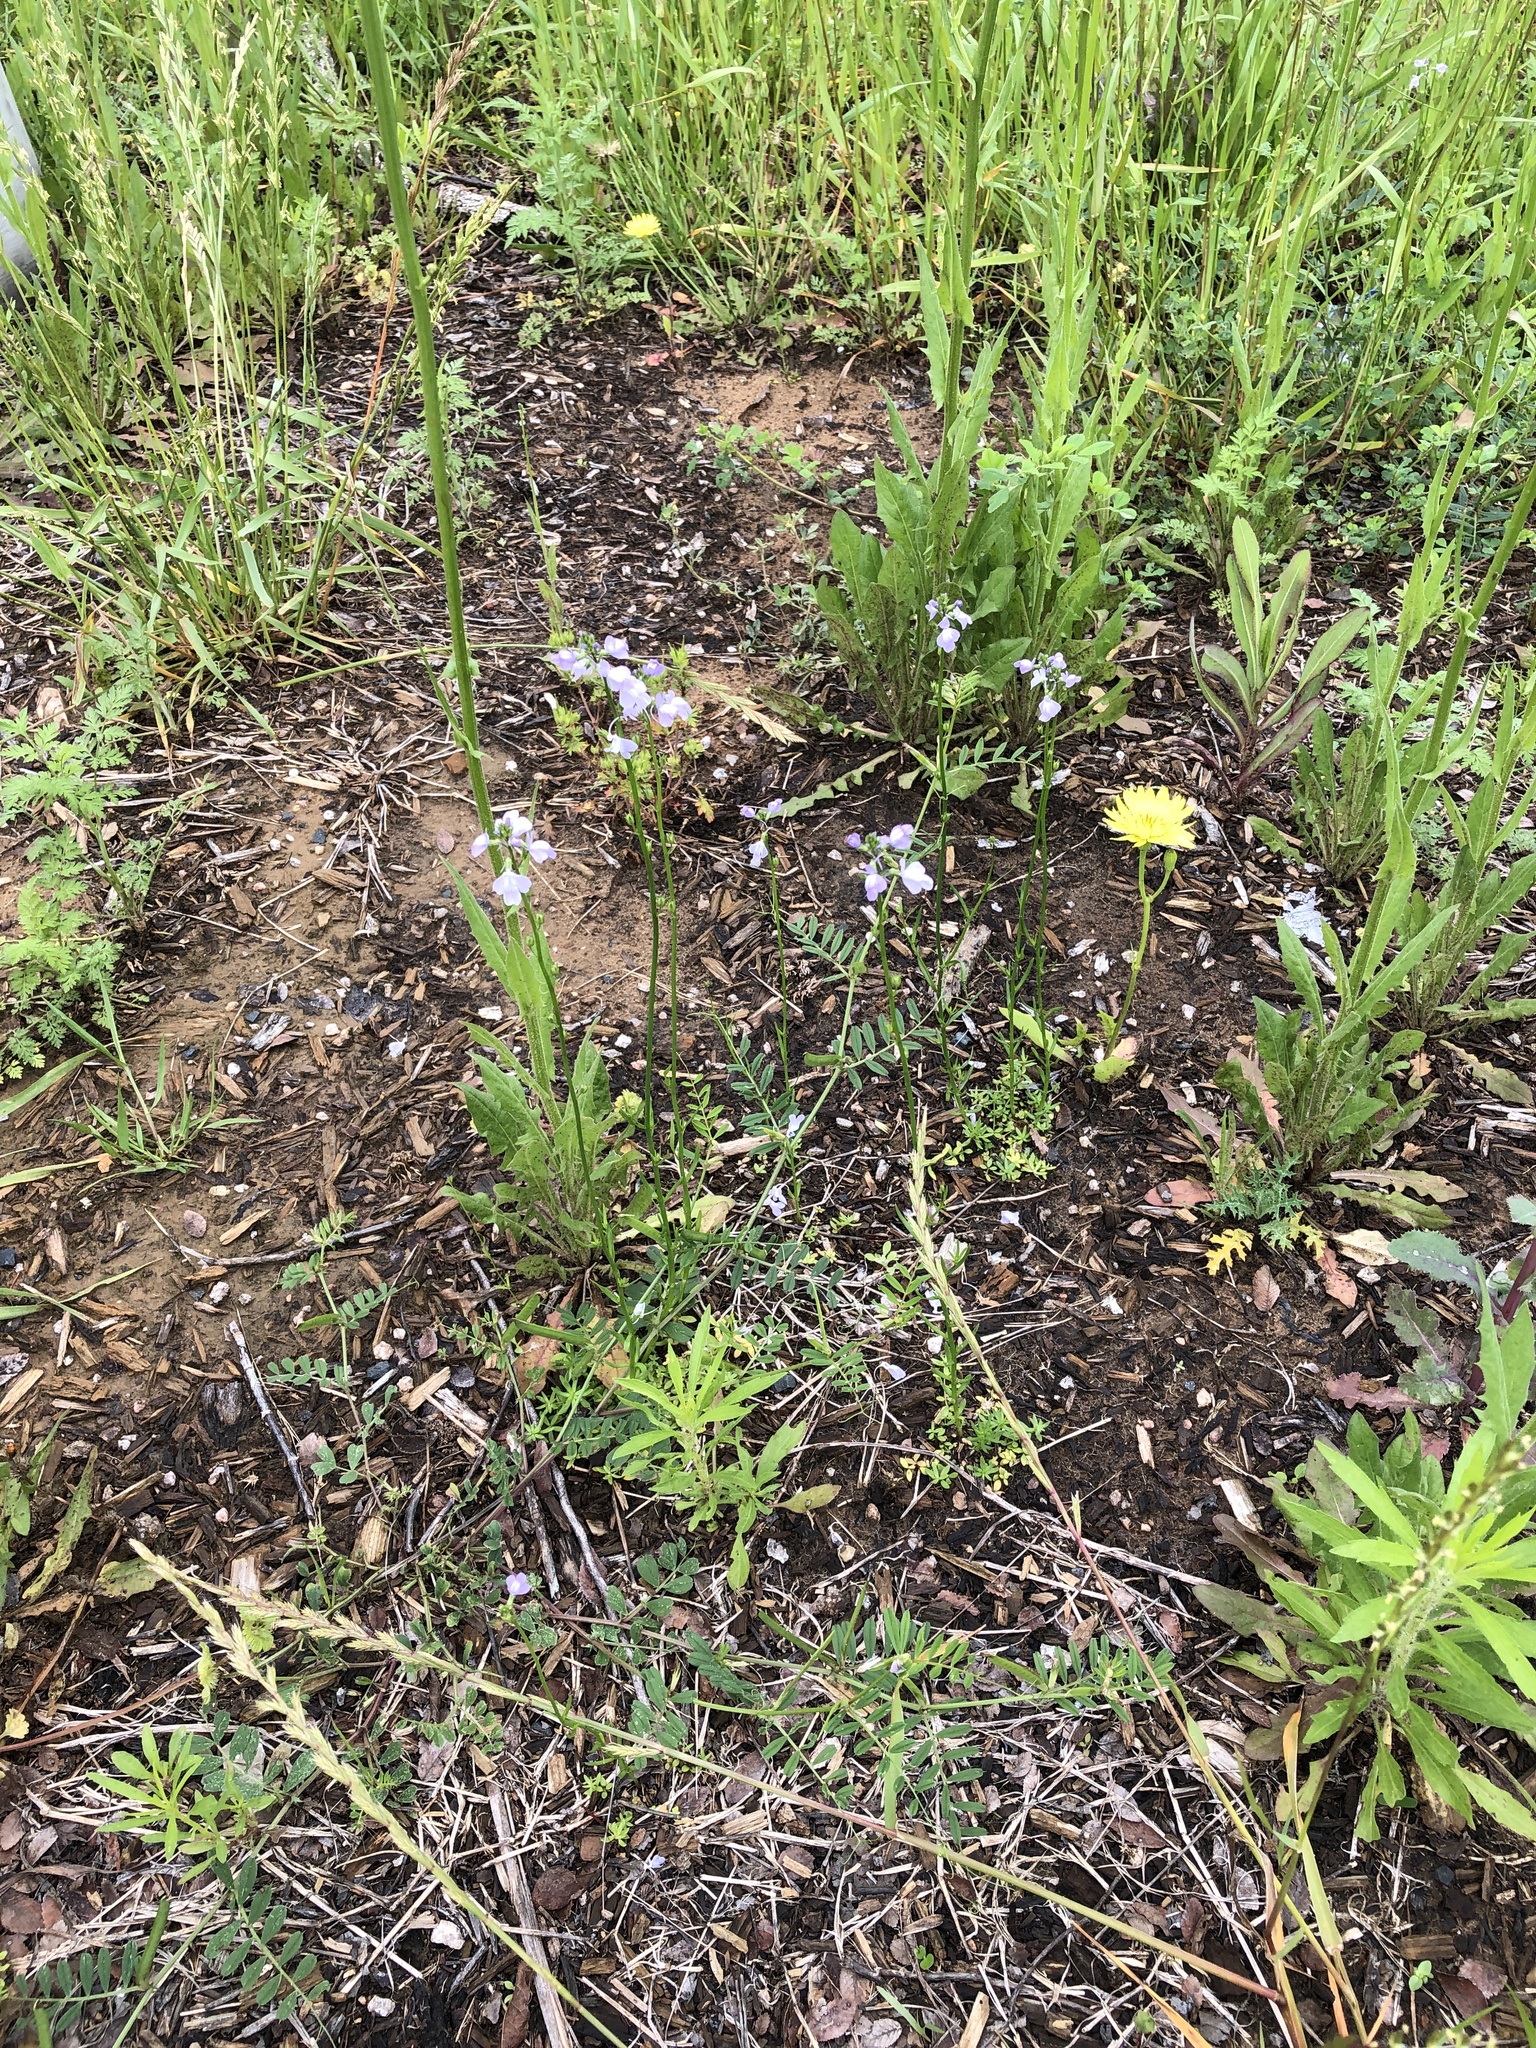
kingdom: Plantae
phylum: Tracheophyta
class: Magnoliopsida
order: Lamiales
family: Plantaginaceae
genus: Nuttallanthus
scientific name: Nuttallanthus texanus
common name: Texas toadflax
